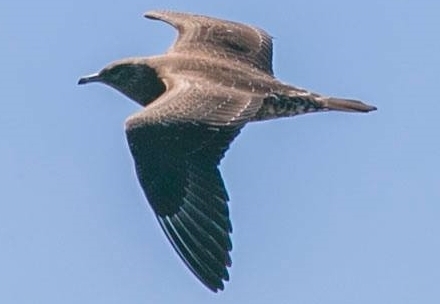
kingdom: Animalia
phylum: Chordata
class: Aves
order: Charadriiformes
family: Stercorariidae
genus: Stercorarius
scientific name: Stercorarius parasiticus
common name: Parasitic jaeger
